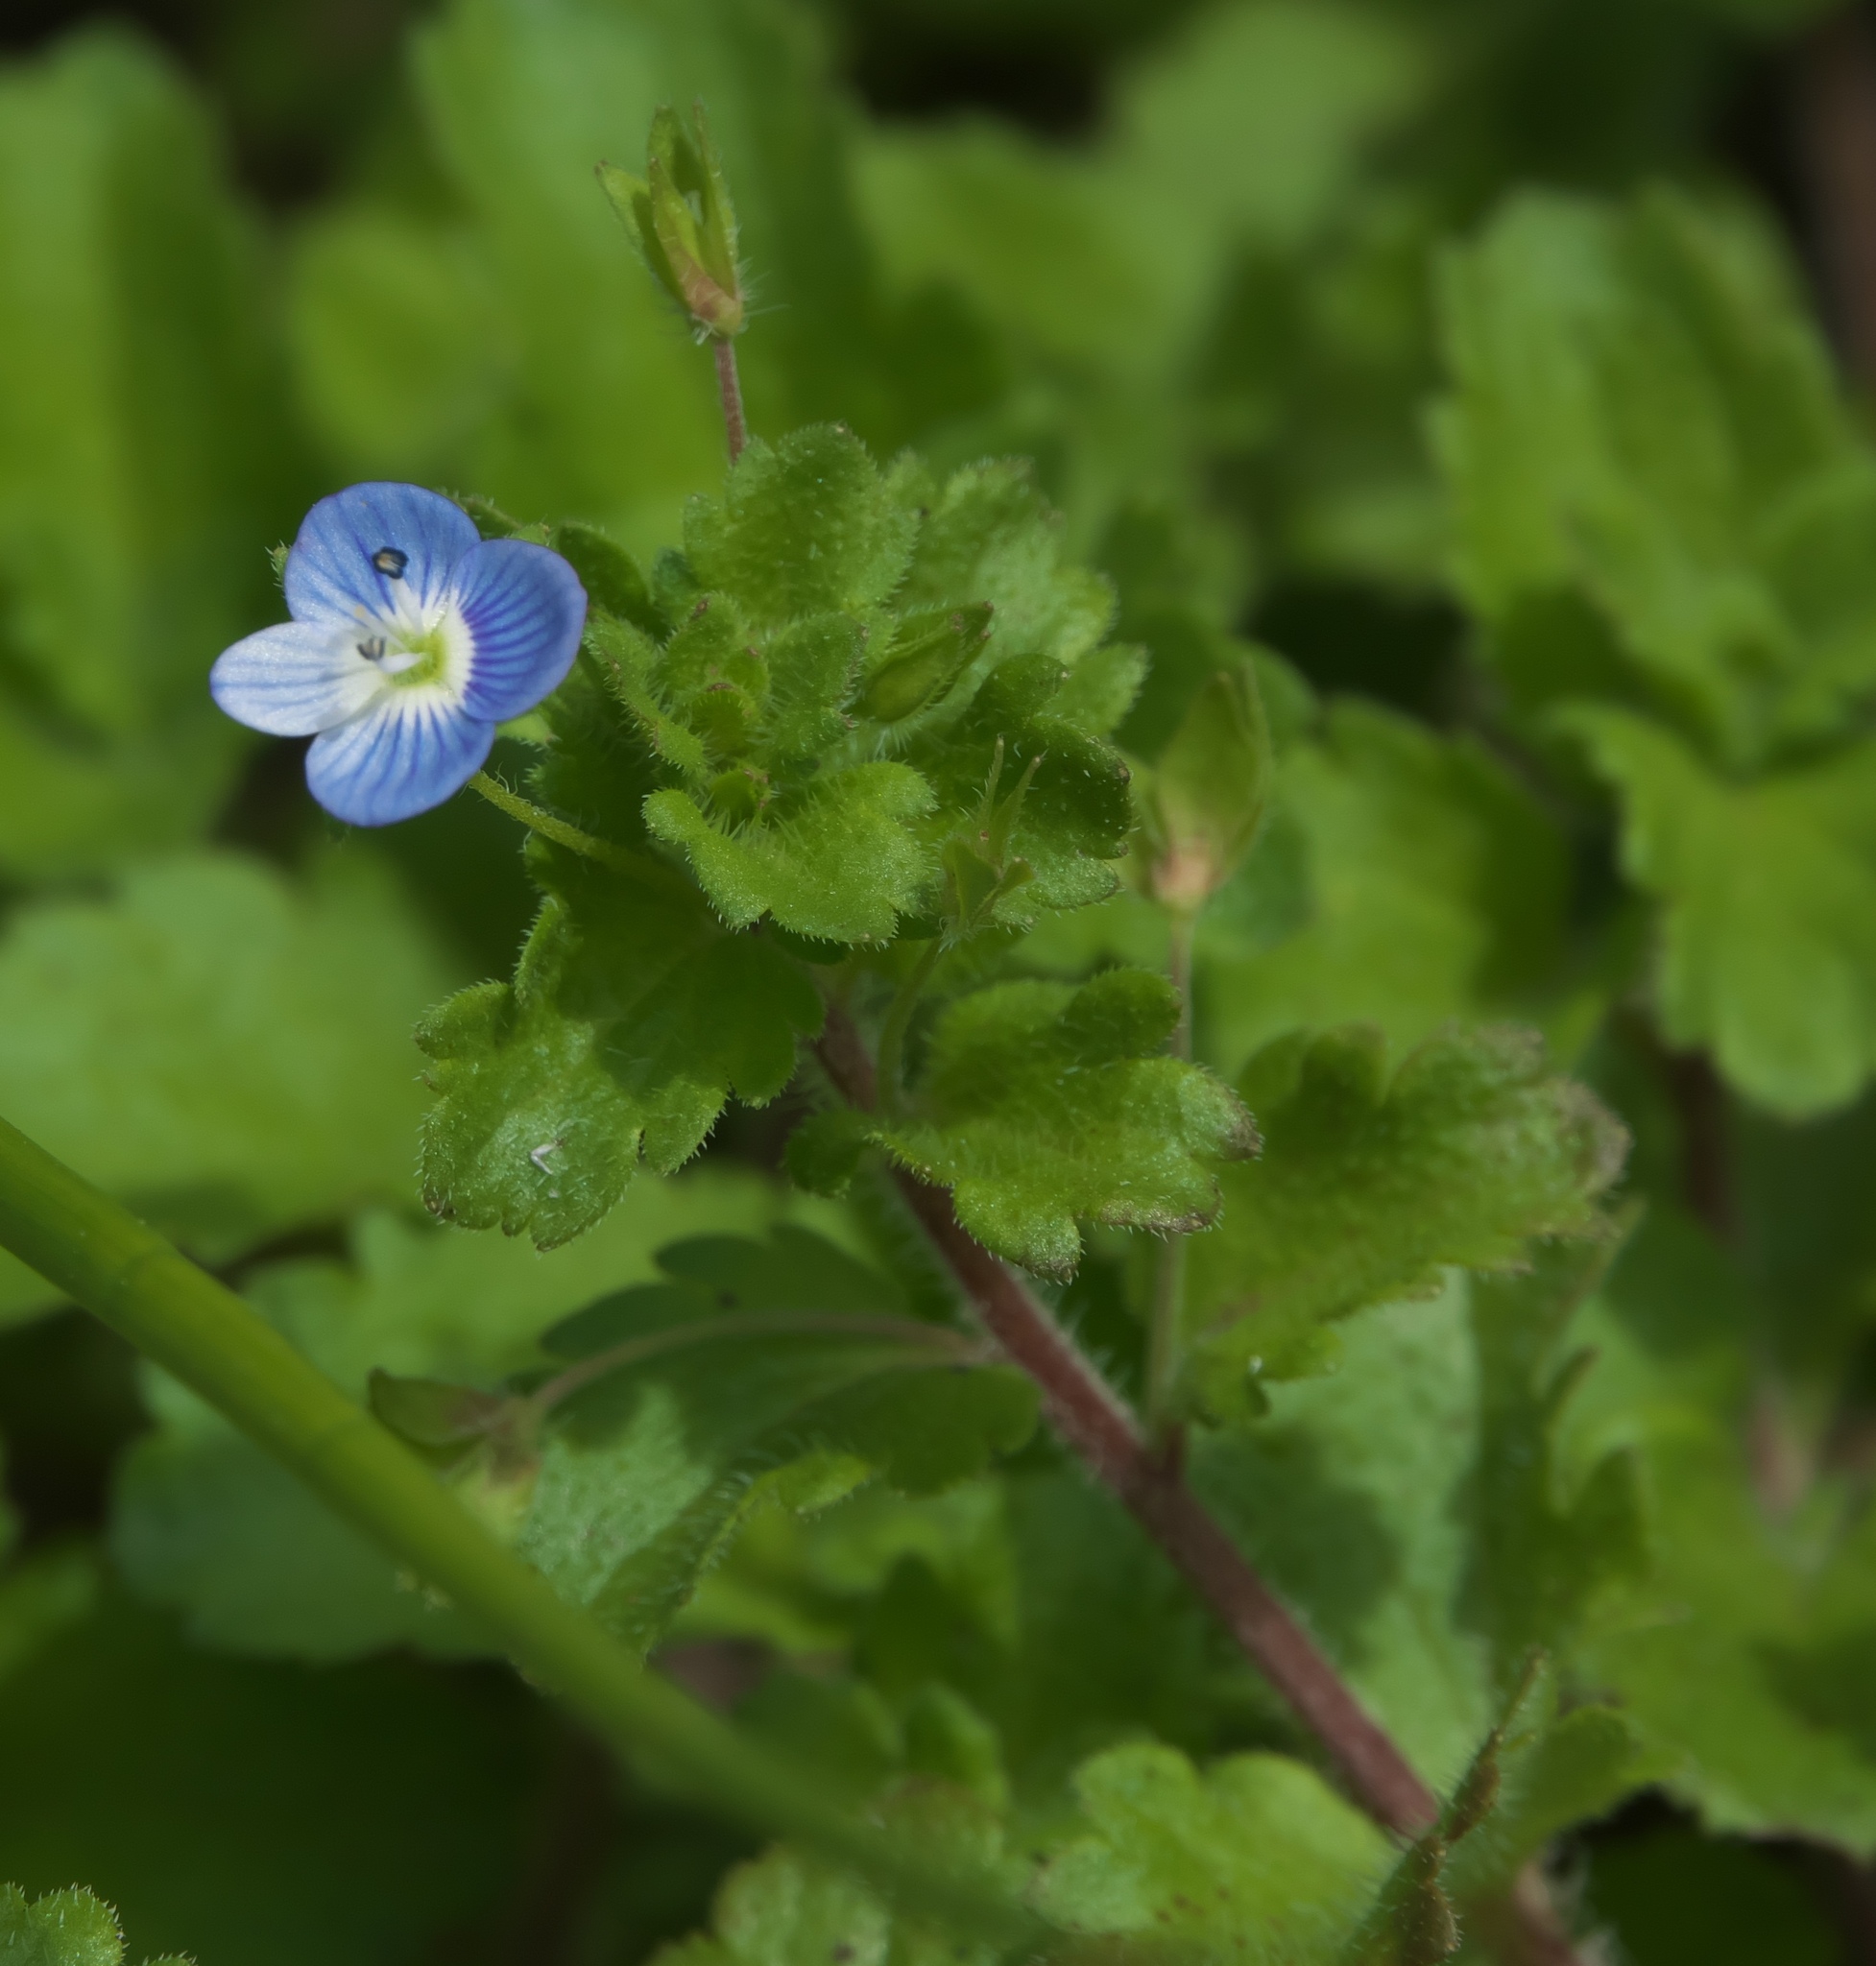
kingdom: Plantae
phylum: Tracheophyta
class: Magnoliopsida
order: Lamiales
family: Plantaginaceae
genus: Veronica
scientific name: Veronica persica
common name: Common field-speedwell
